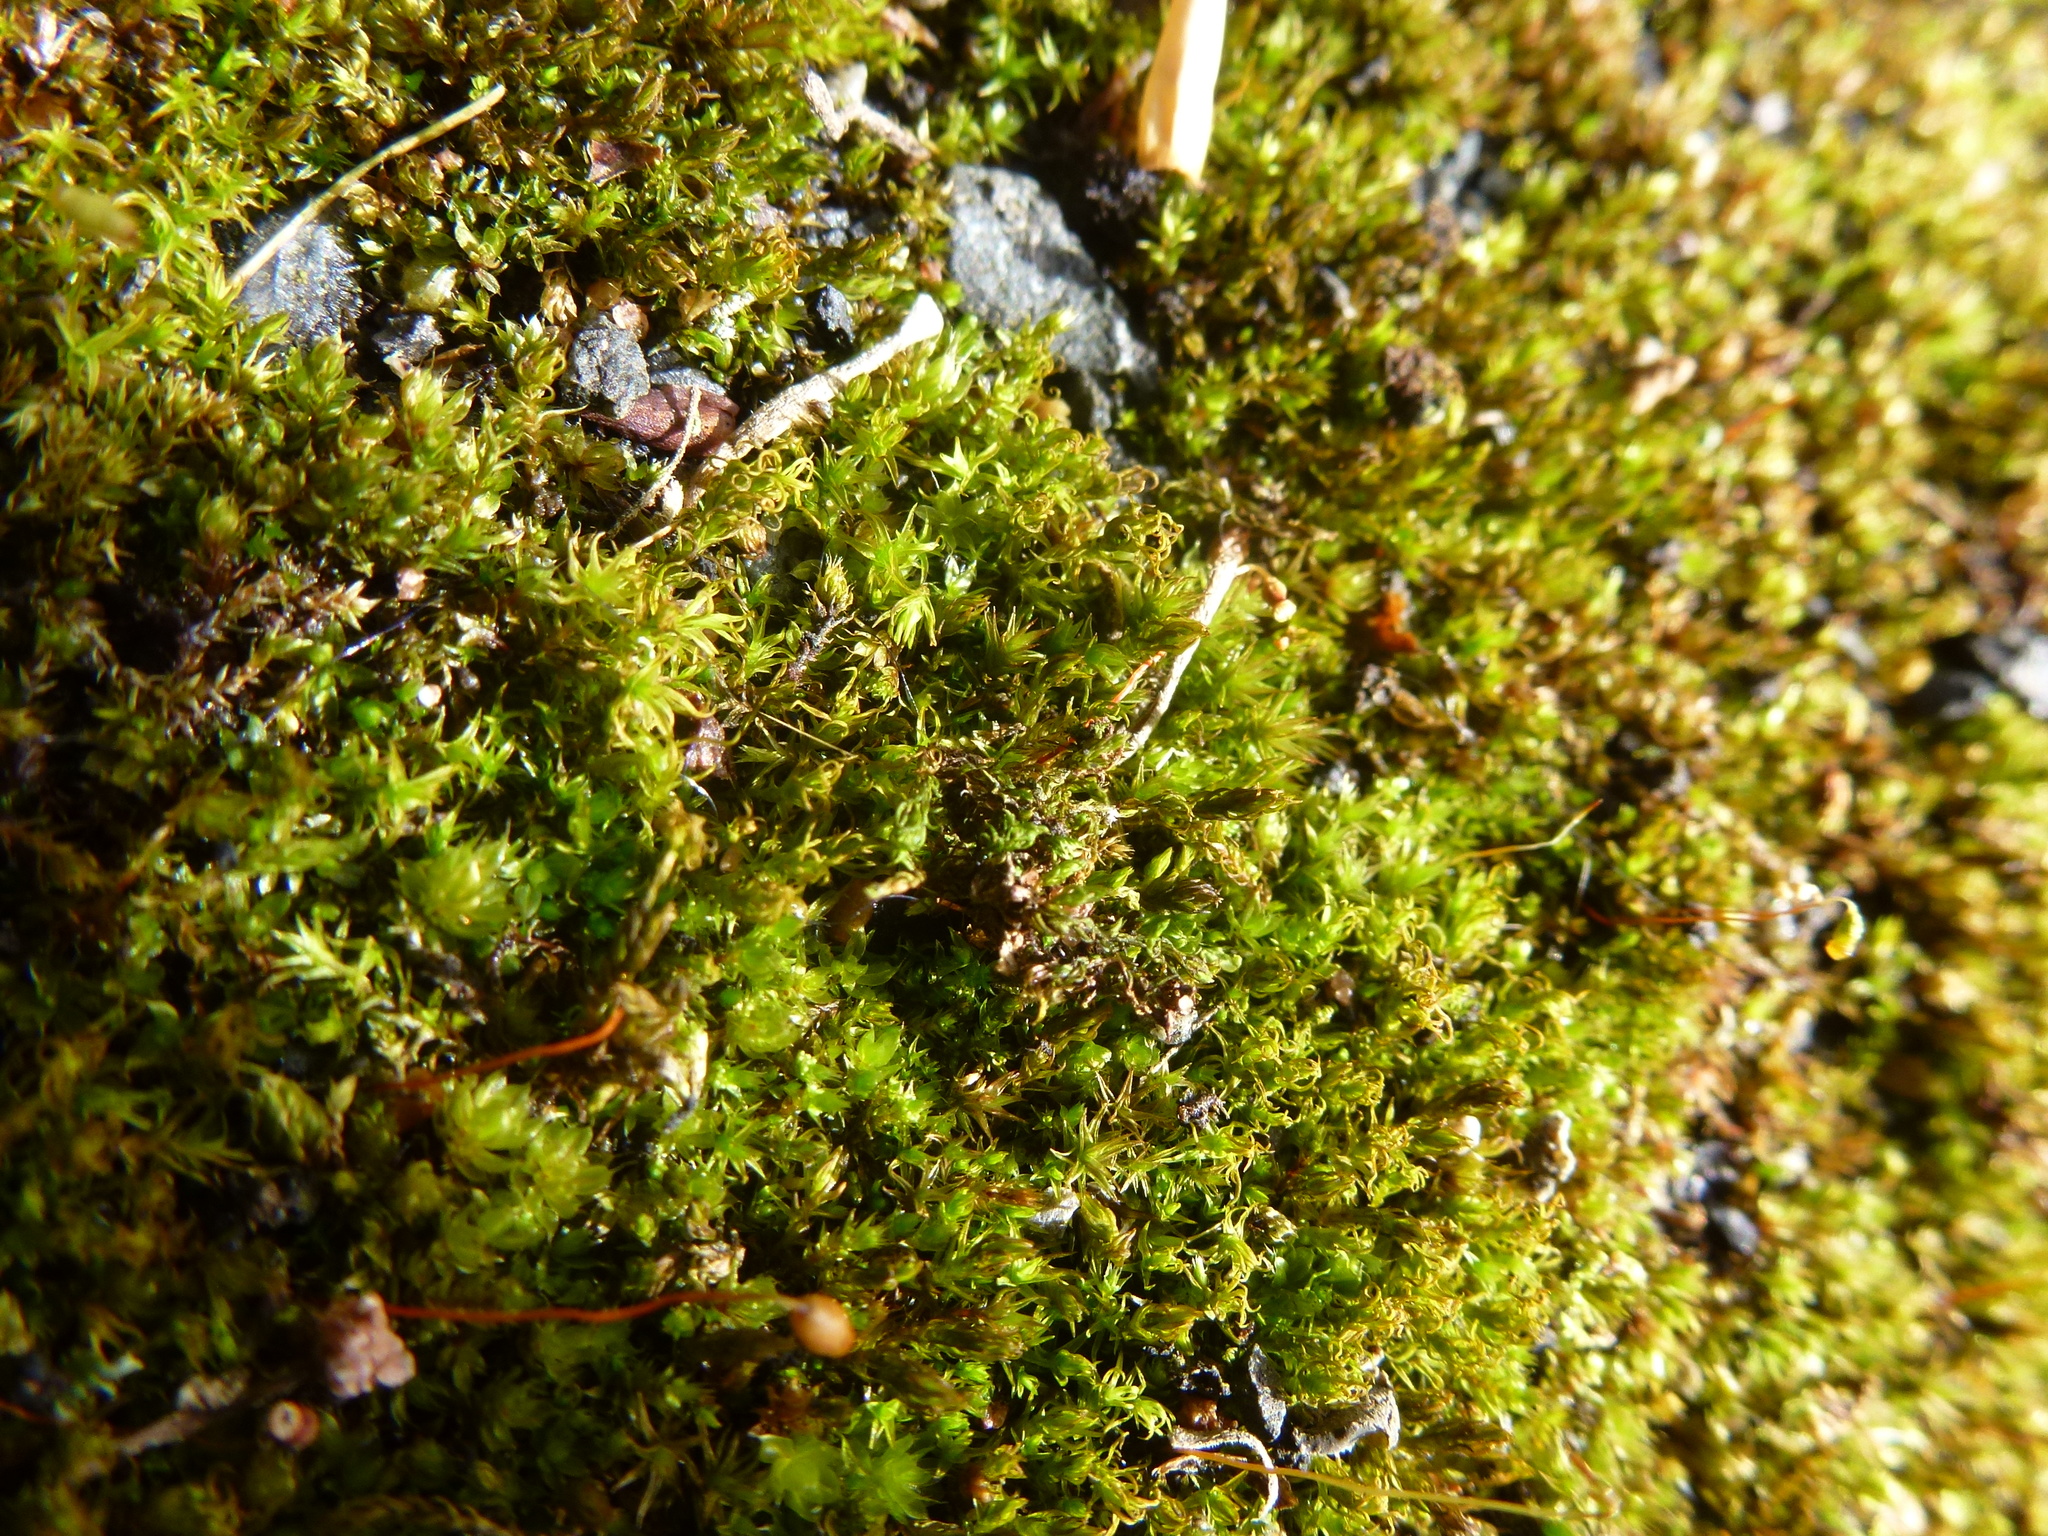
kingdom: Plantae
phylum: Bryophyta
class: Bryopsida
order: Bryales
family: Bryaceae
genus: Rosulabryum
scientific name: Rosulabryum capillare
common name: Capillary thread-moss
